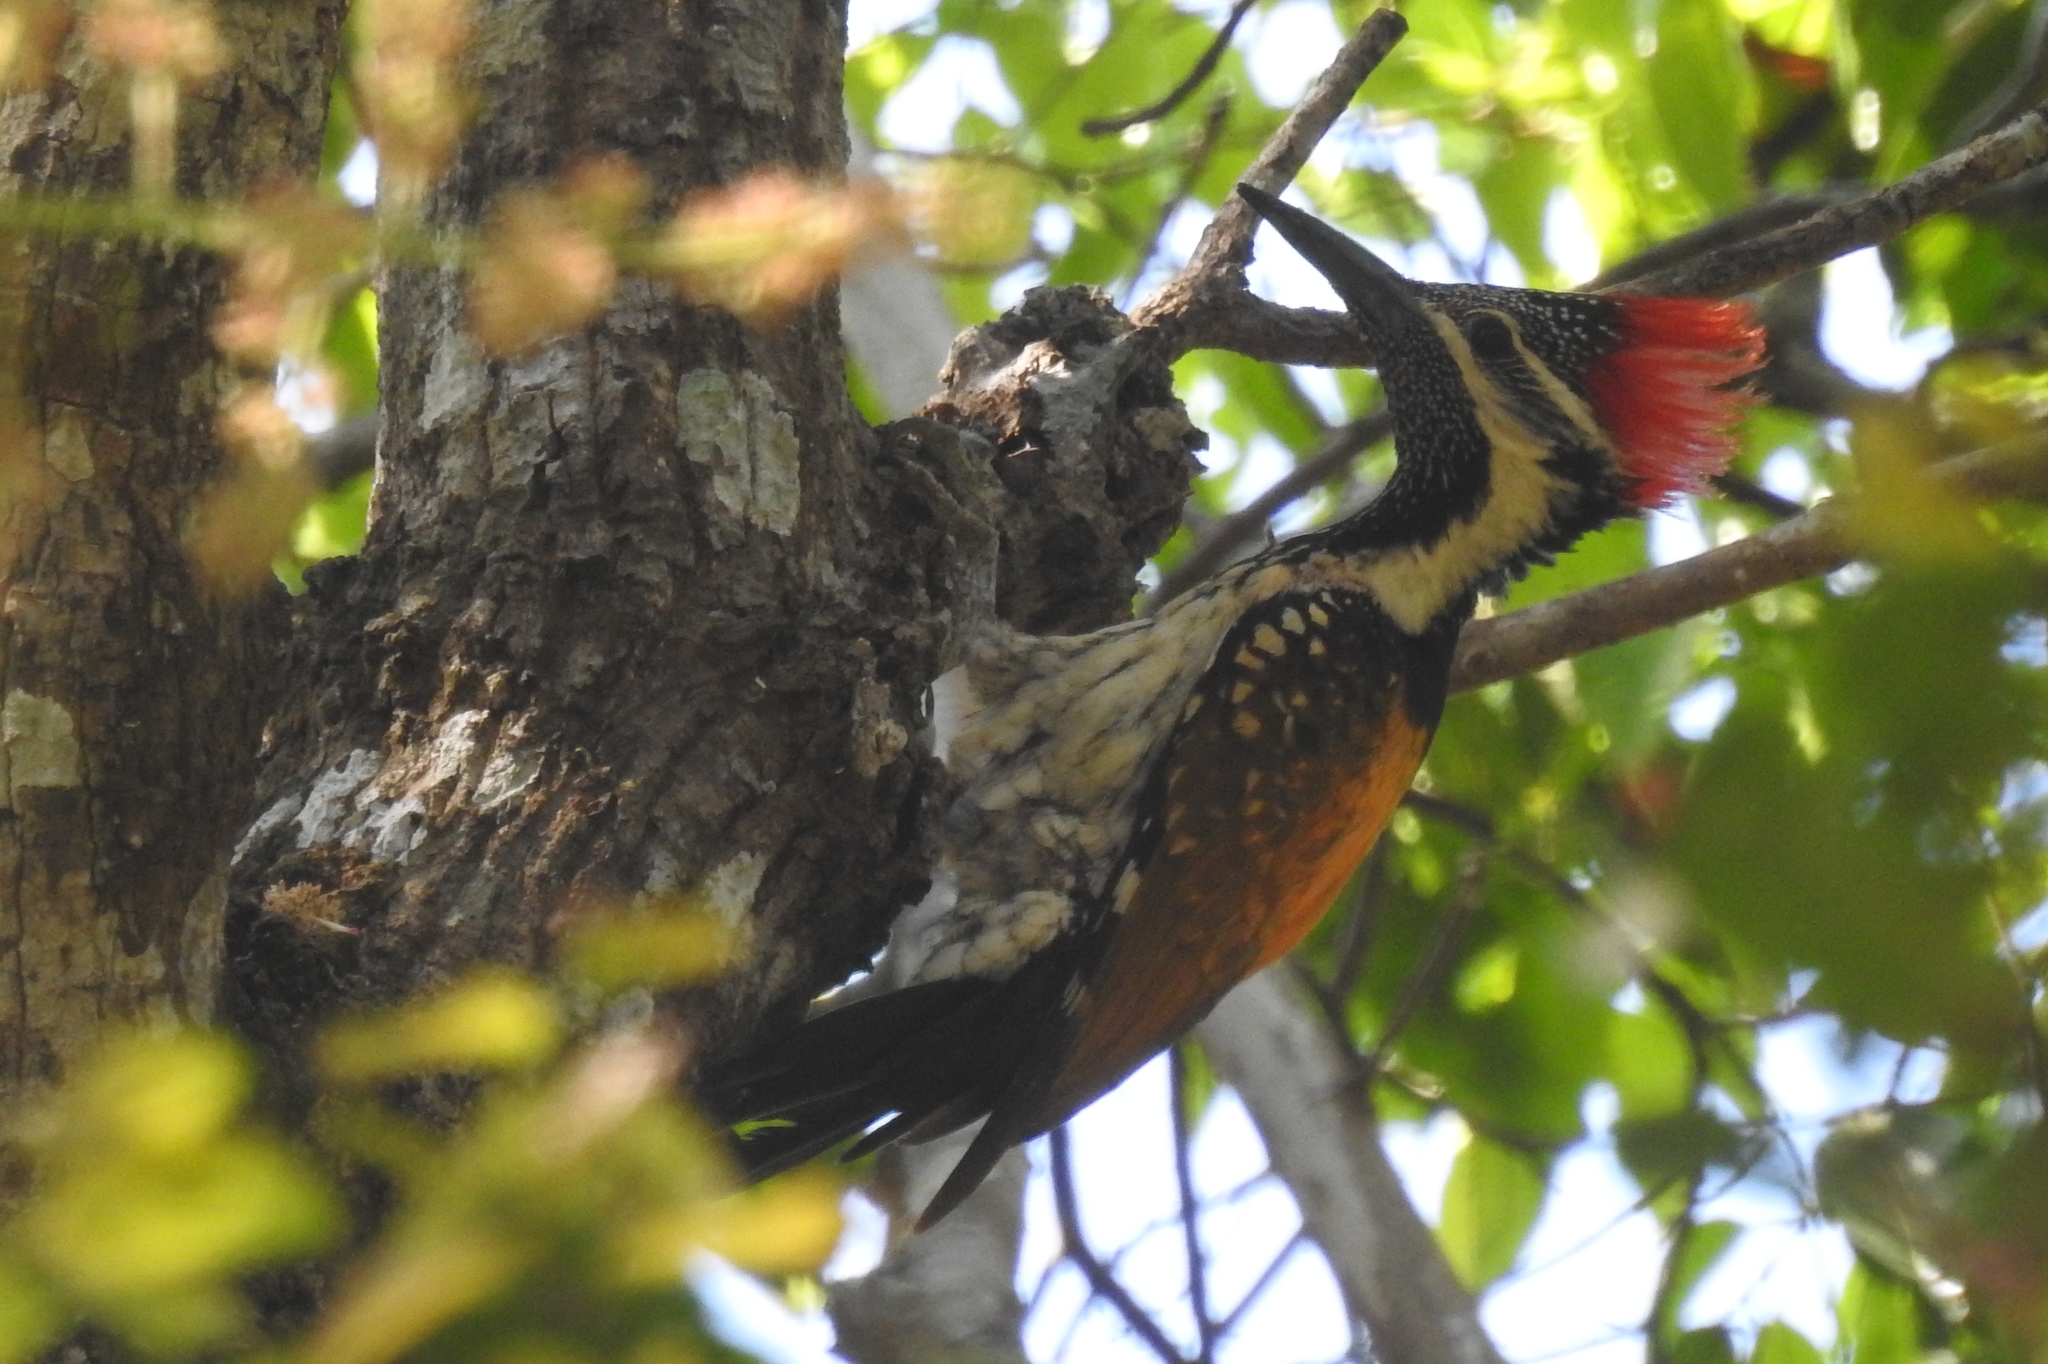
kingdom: Animalia
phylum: Chordata
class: Aves
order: Piciformes
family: Picidae
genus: Dinopium
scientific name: Dinopium benghalense
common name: Black-rumped flameback
